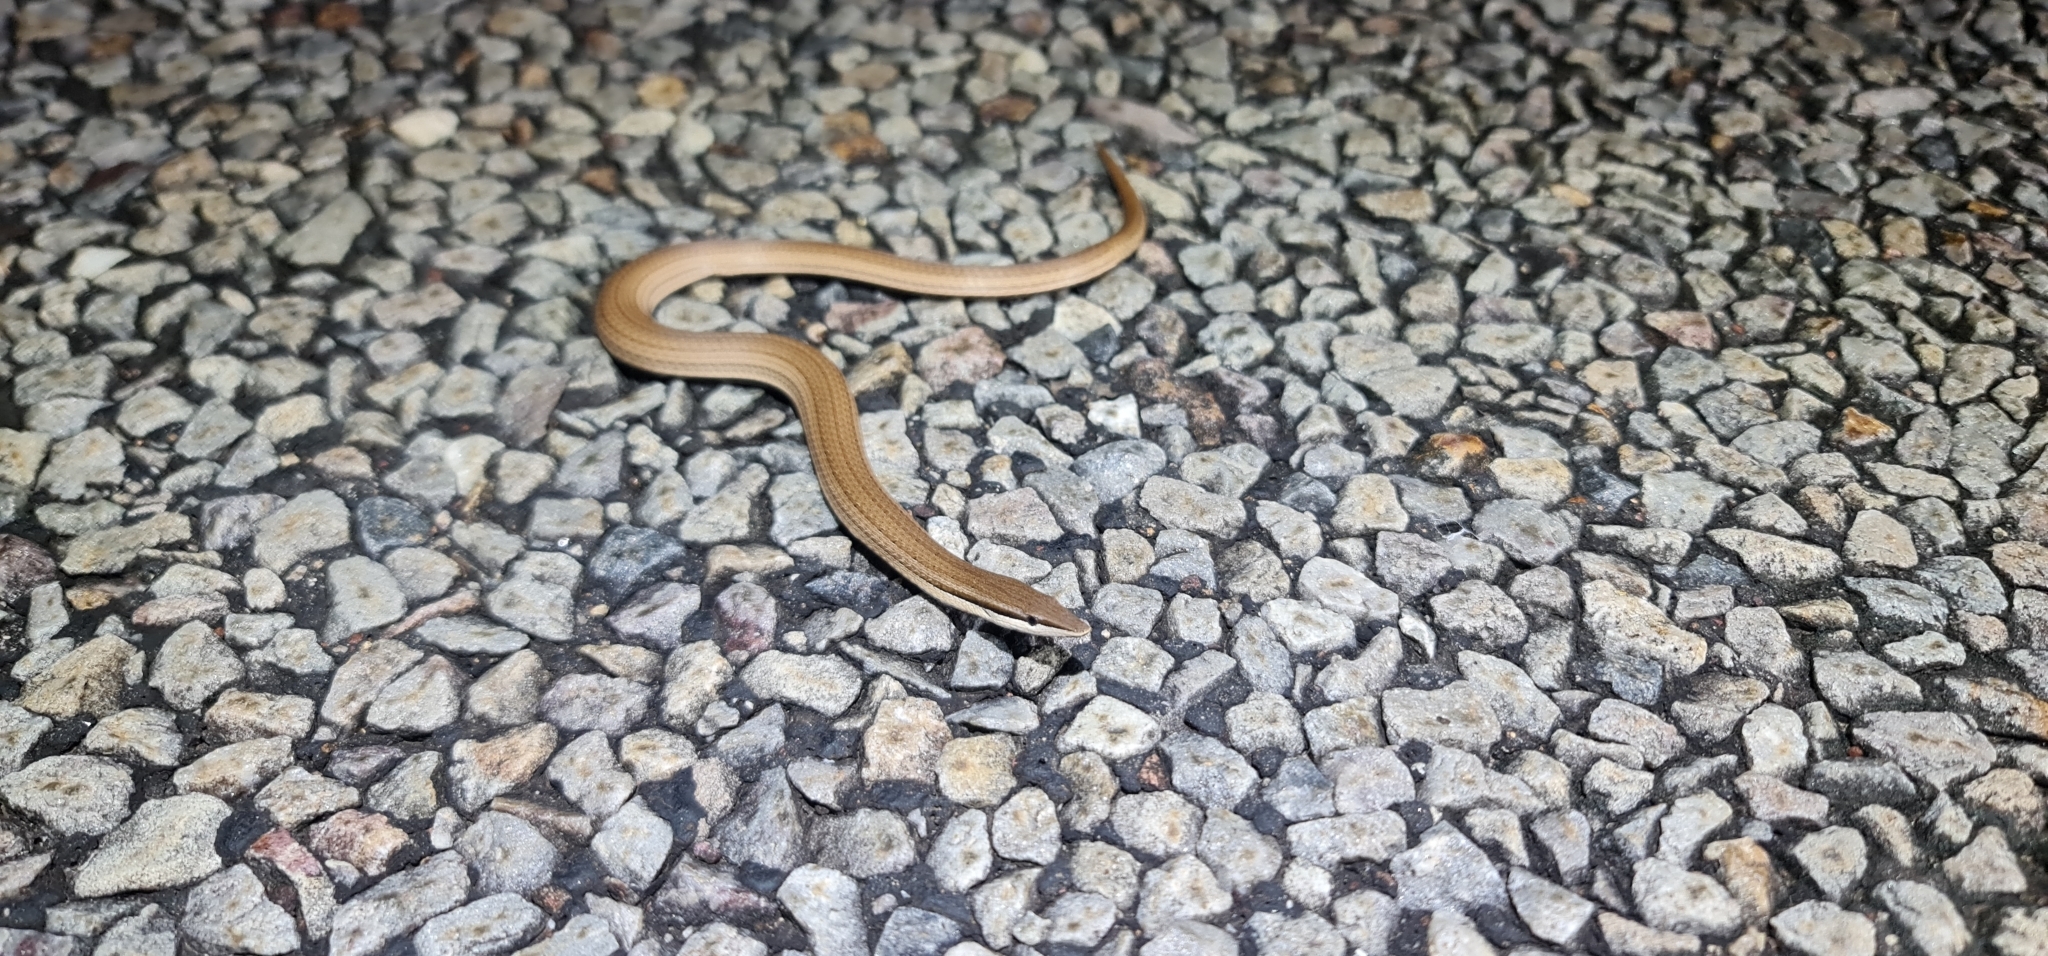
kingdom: Animalia
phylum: Chordata
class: Squamata
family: Pygopodidae
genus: Lialis
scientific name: Lialis burtonis
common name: Burton's legless lizard
